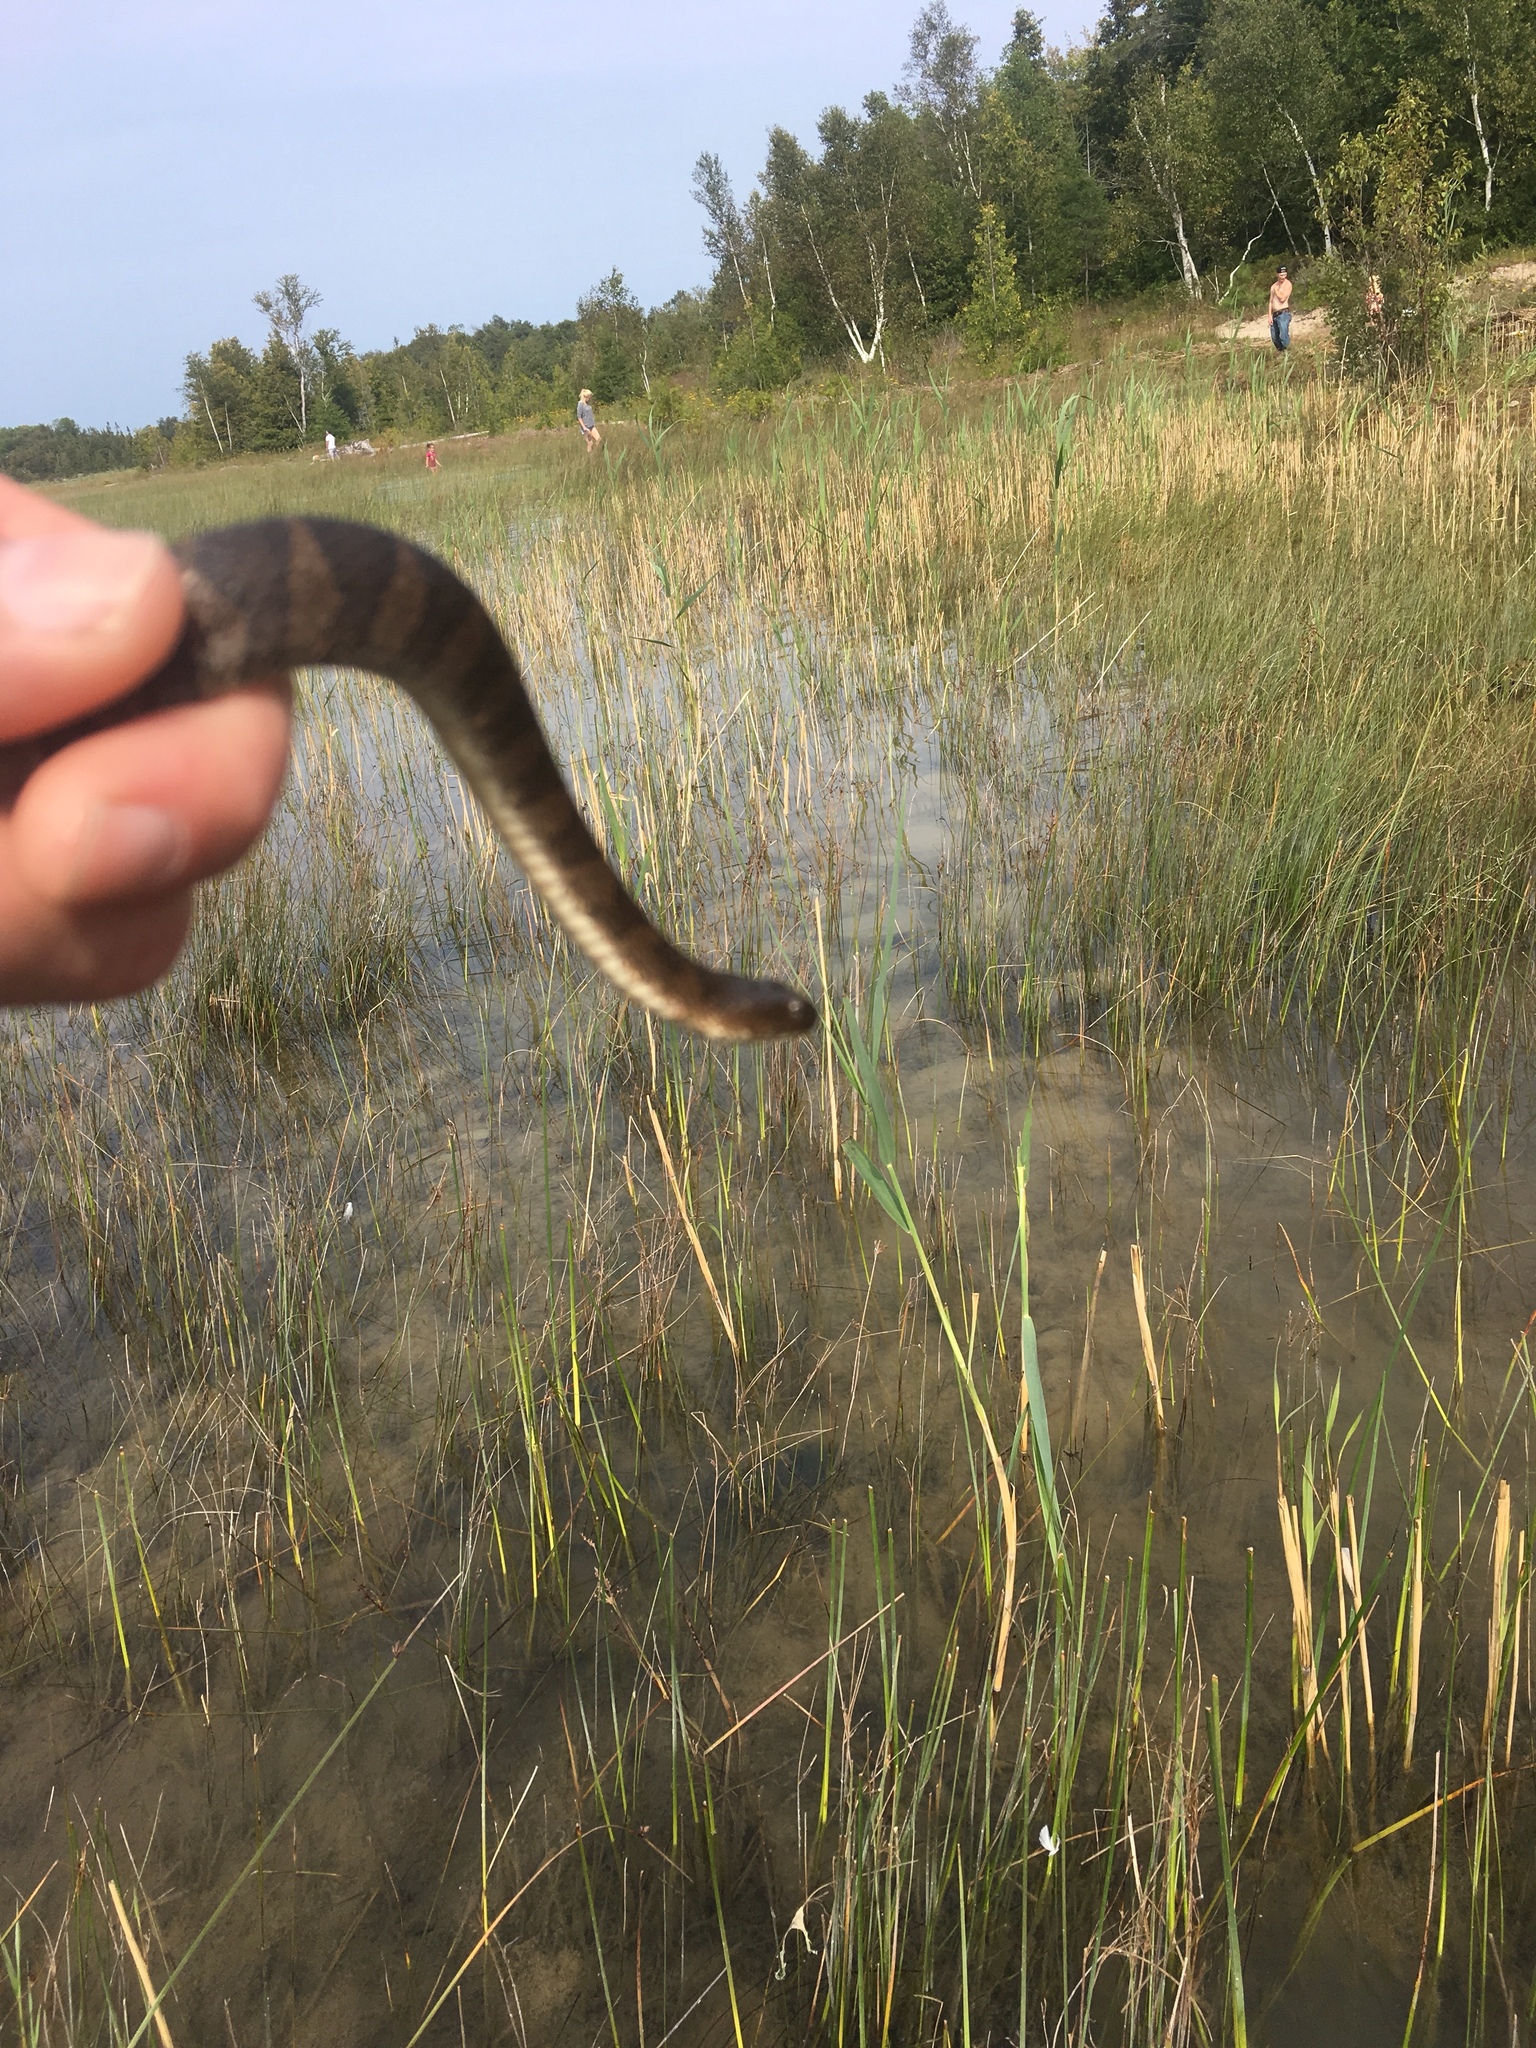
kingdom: Animalia
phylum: Chordata
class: Squamata
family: Colubridae
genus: Nerodia
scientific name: Nerodia sipedon
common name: Northern water snake
